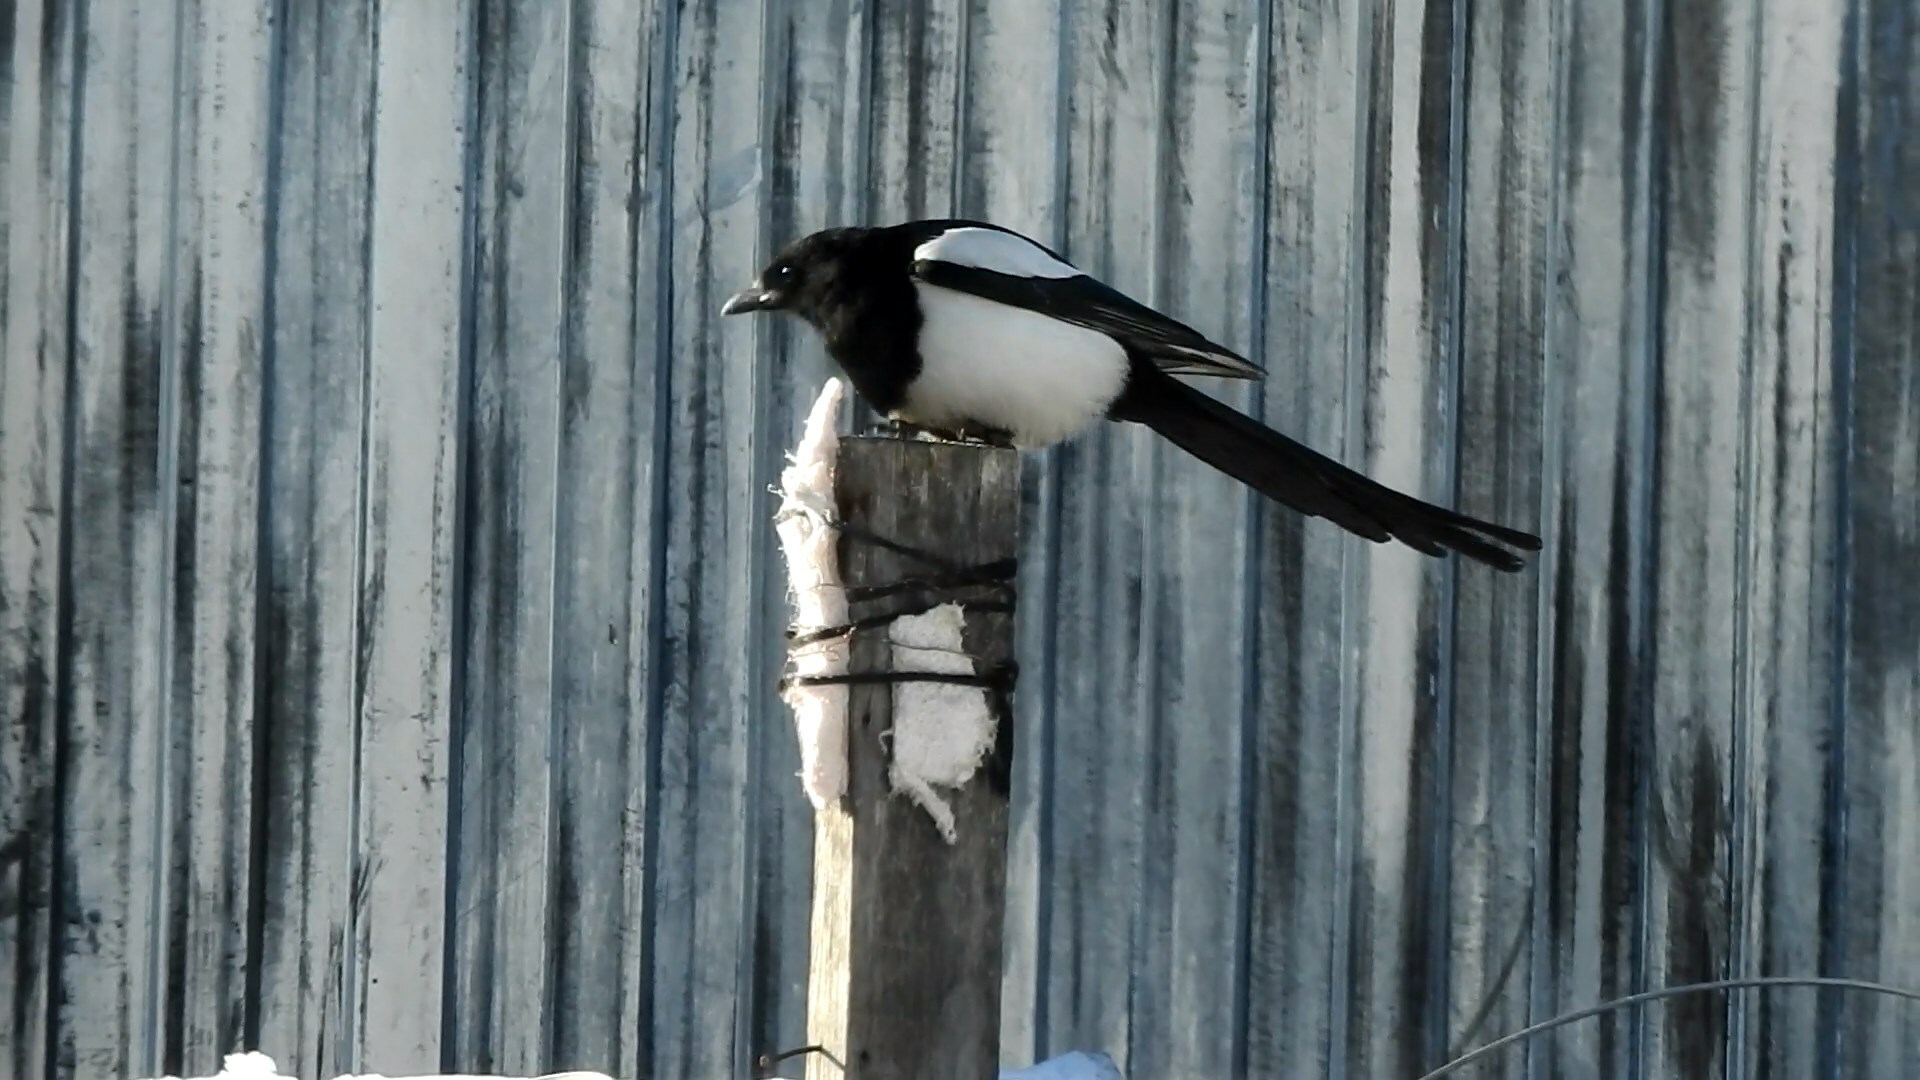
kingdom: Animalia
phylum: Chordata
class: Aves
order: Passeriformes
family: Corvidae
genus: Pica
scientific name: Pica pica
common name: Eurasian magpie
